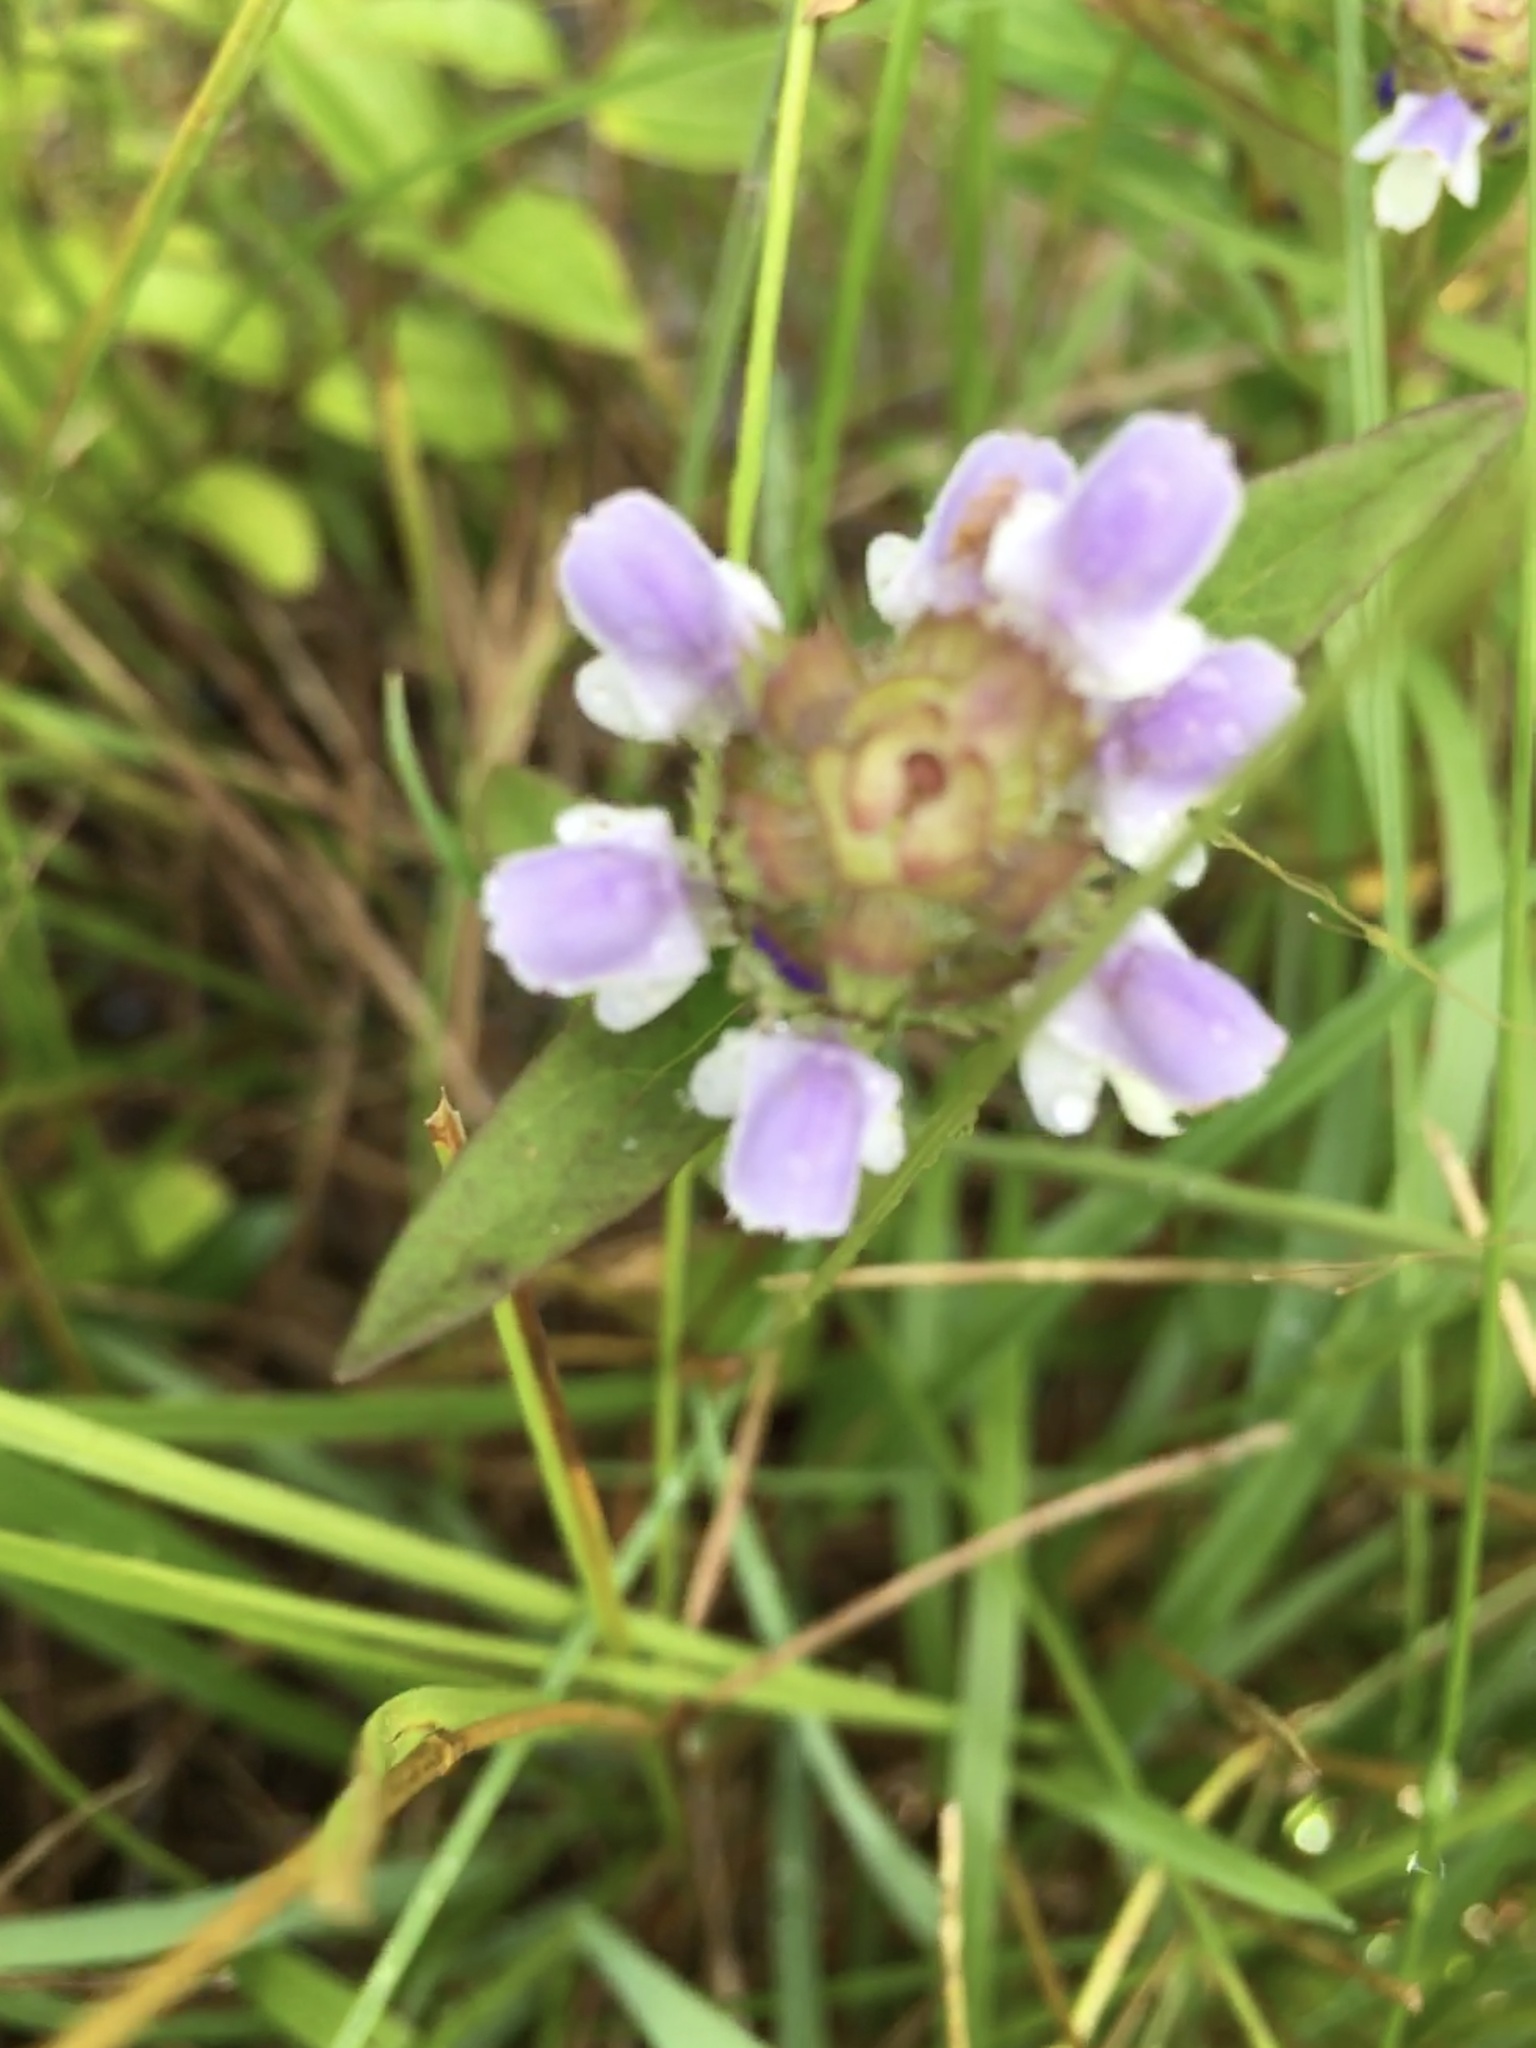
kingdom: Plantae
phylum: Tracheophyta
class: Magnoliopsida
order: Lamiales
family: Lamiaceae
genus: Prunella
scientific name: Prunella vulgaris
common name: Heal-all
